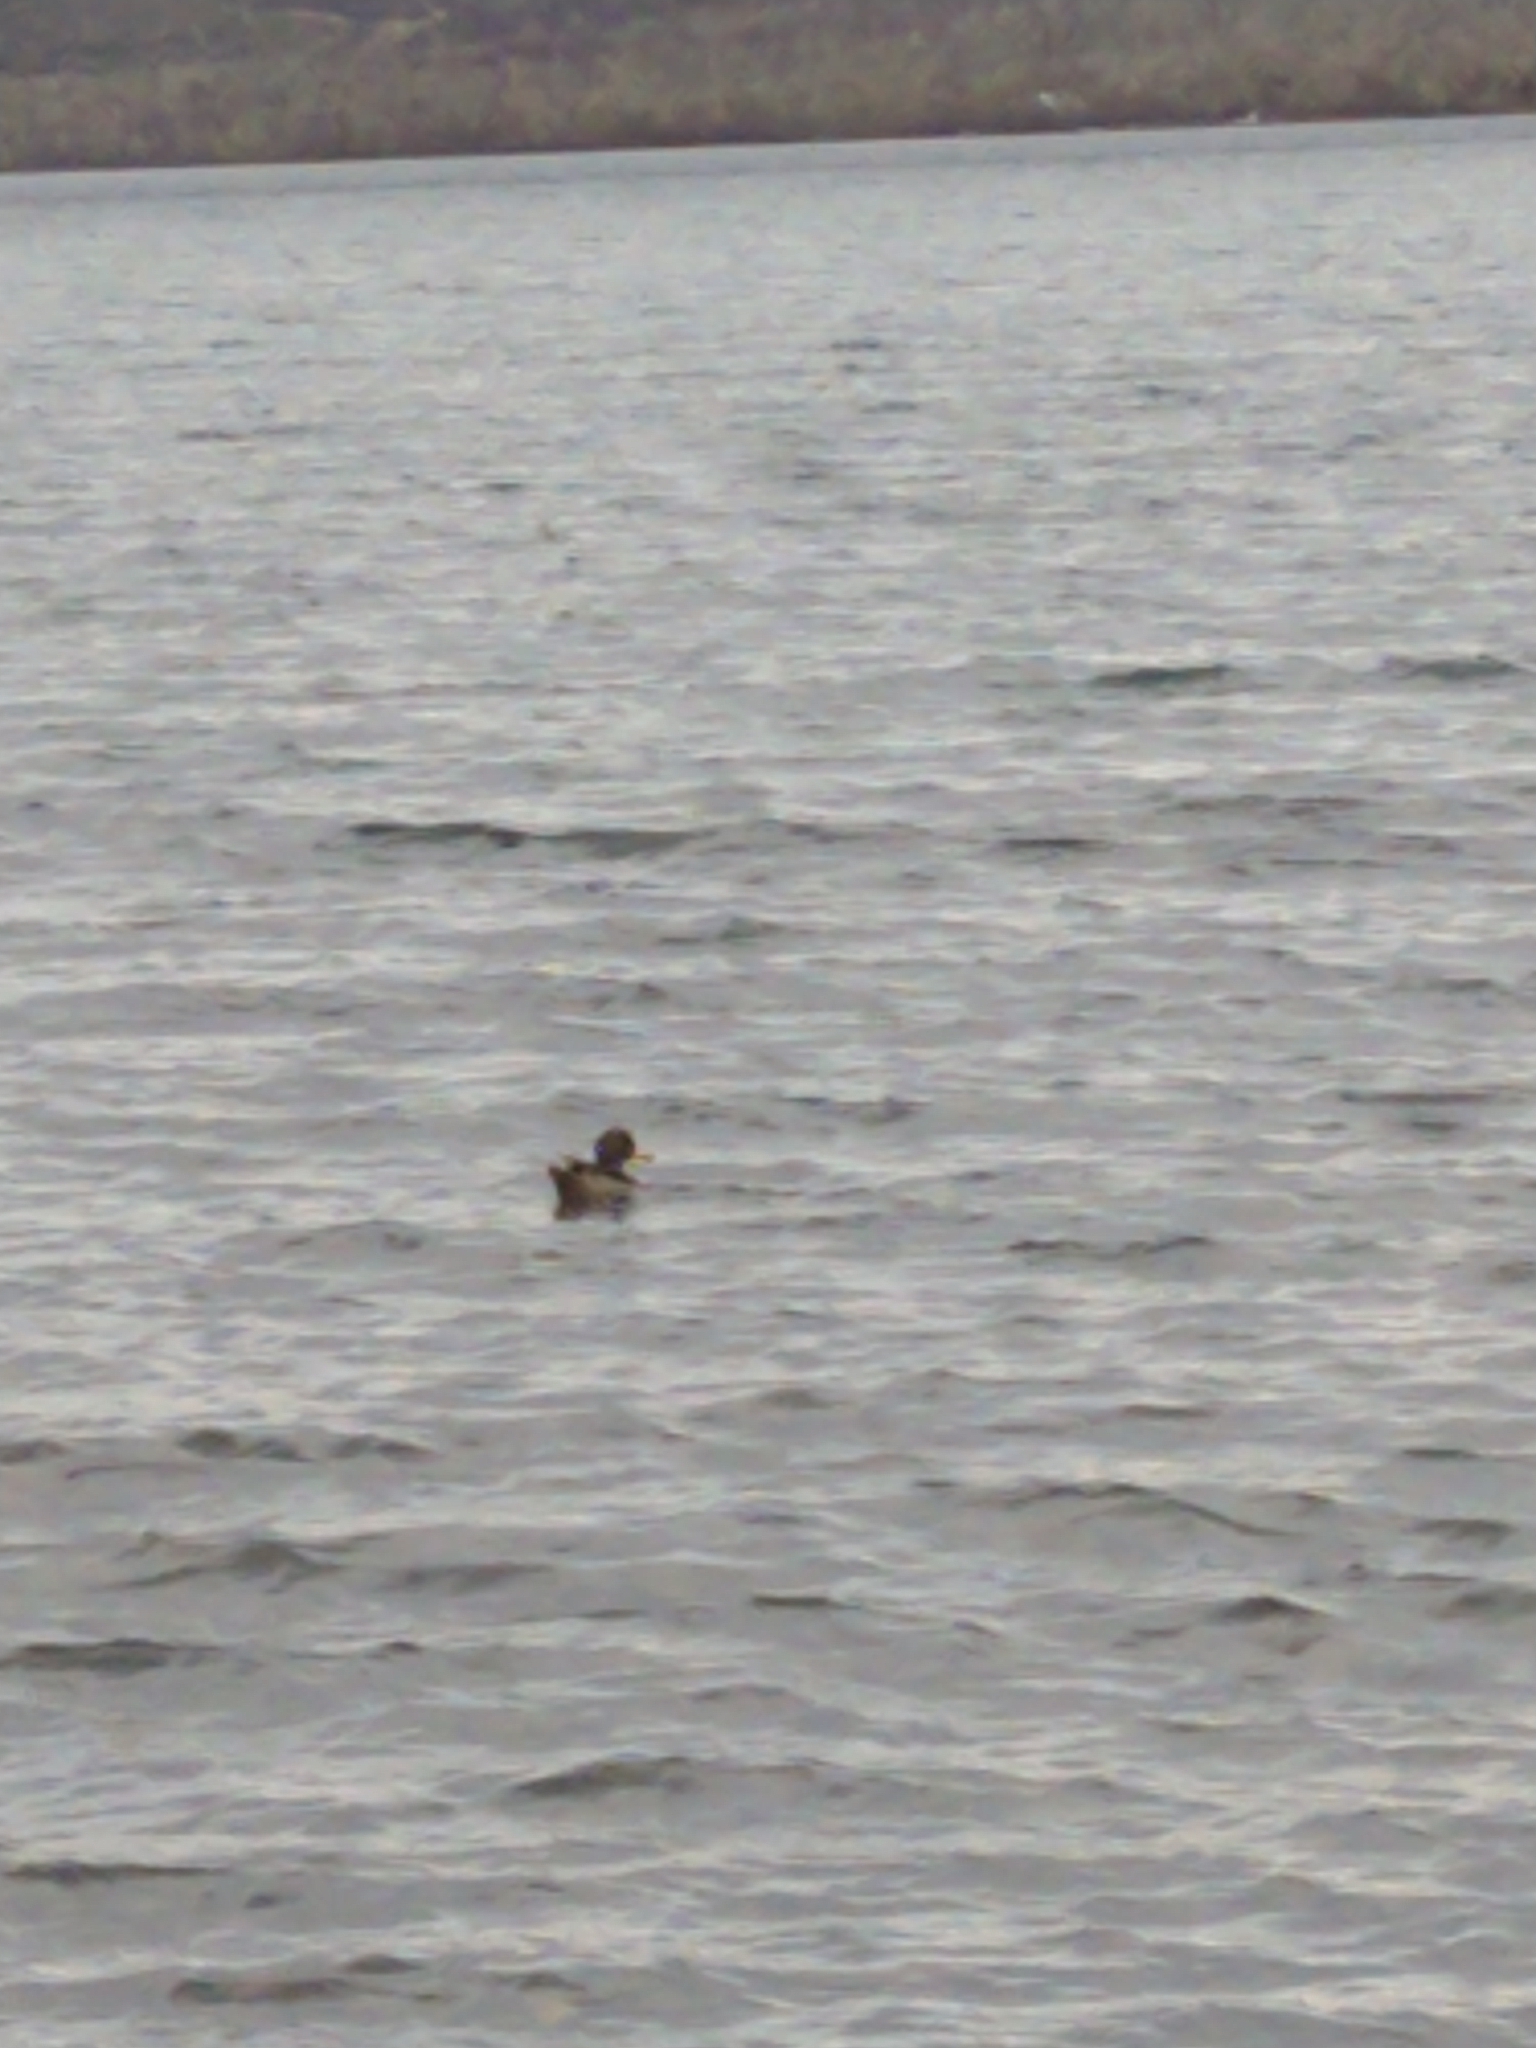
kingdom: Animalia
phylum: Chordata
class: Aves
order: Anseriformes
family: Anatidae
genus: Anas
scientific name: Anas flavirostris
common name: Yellow-billed teal
